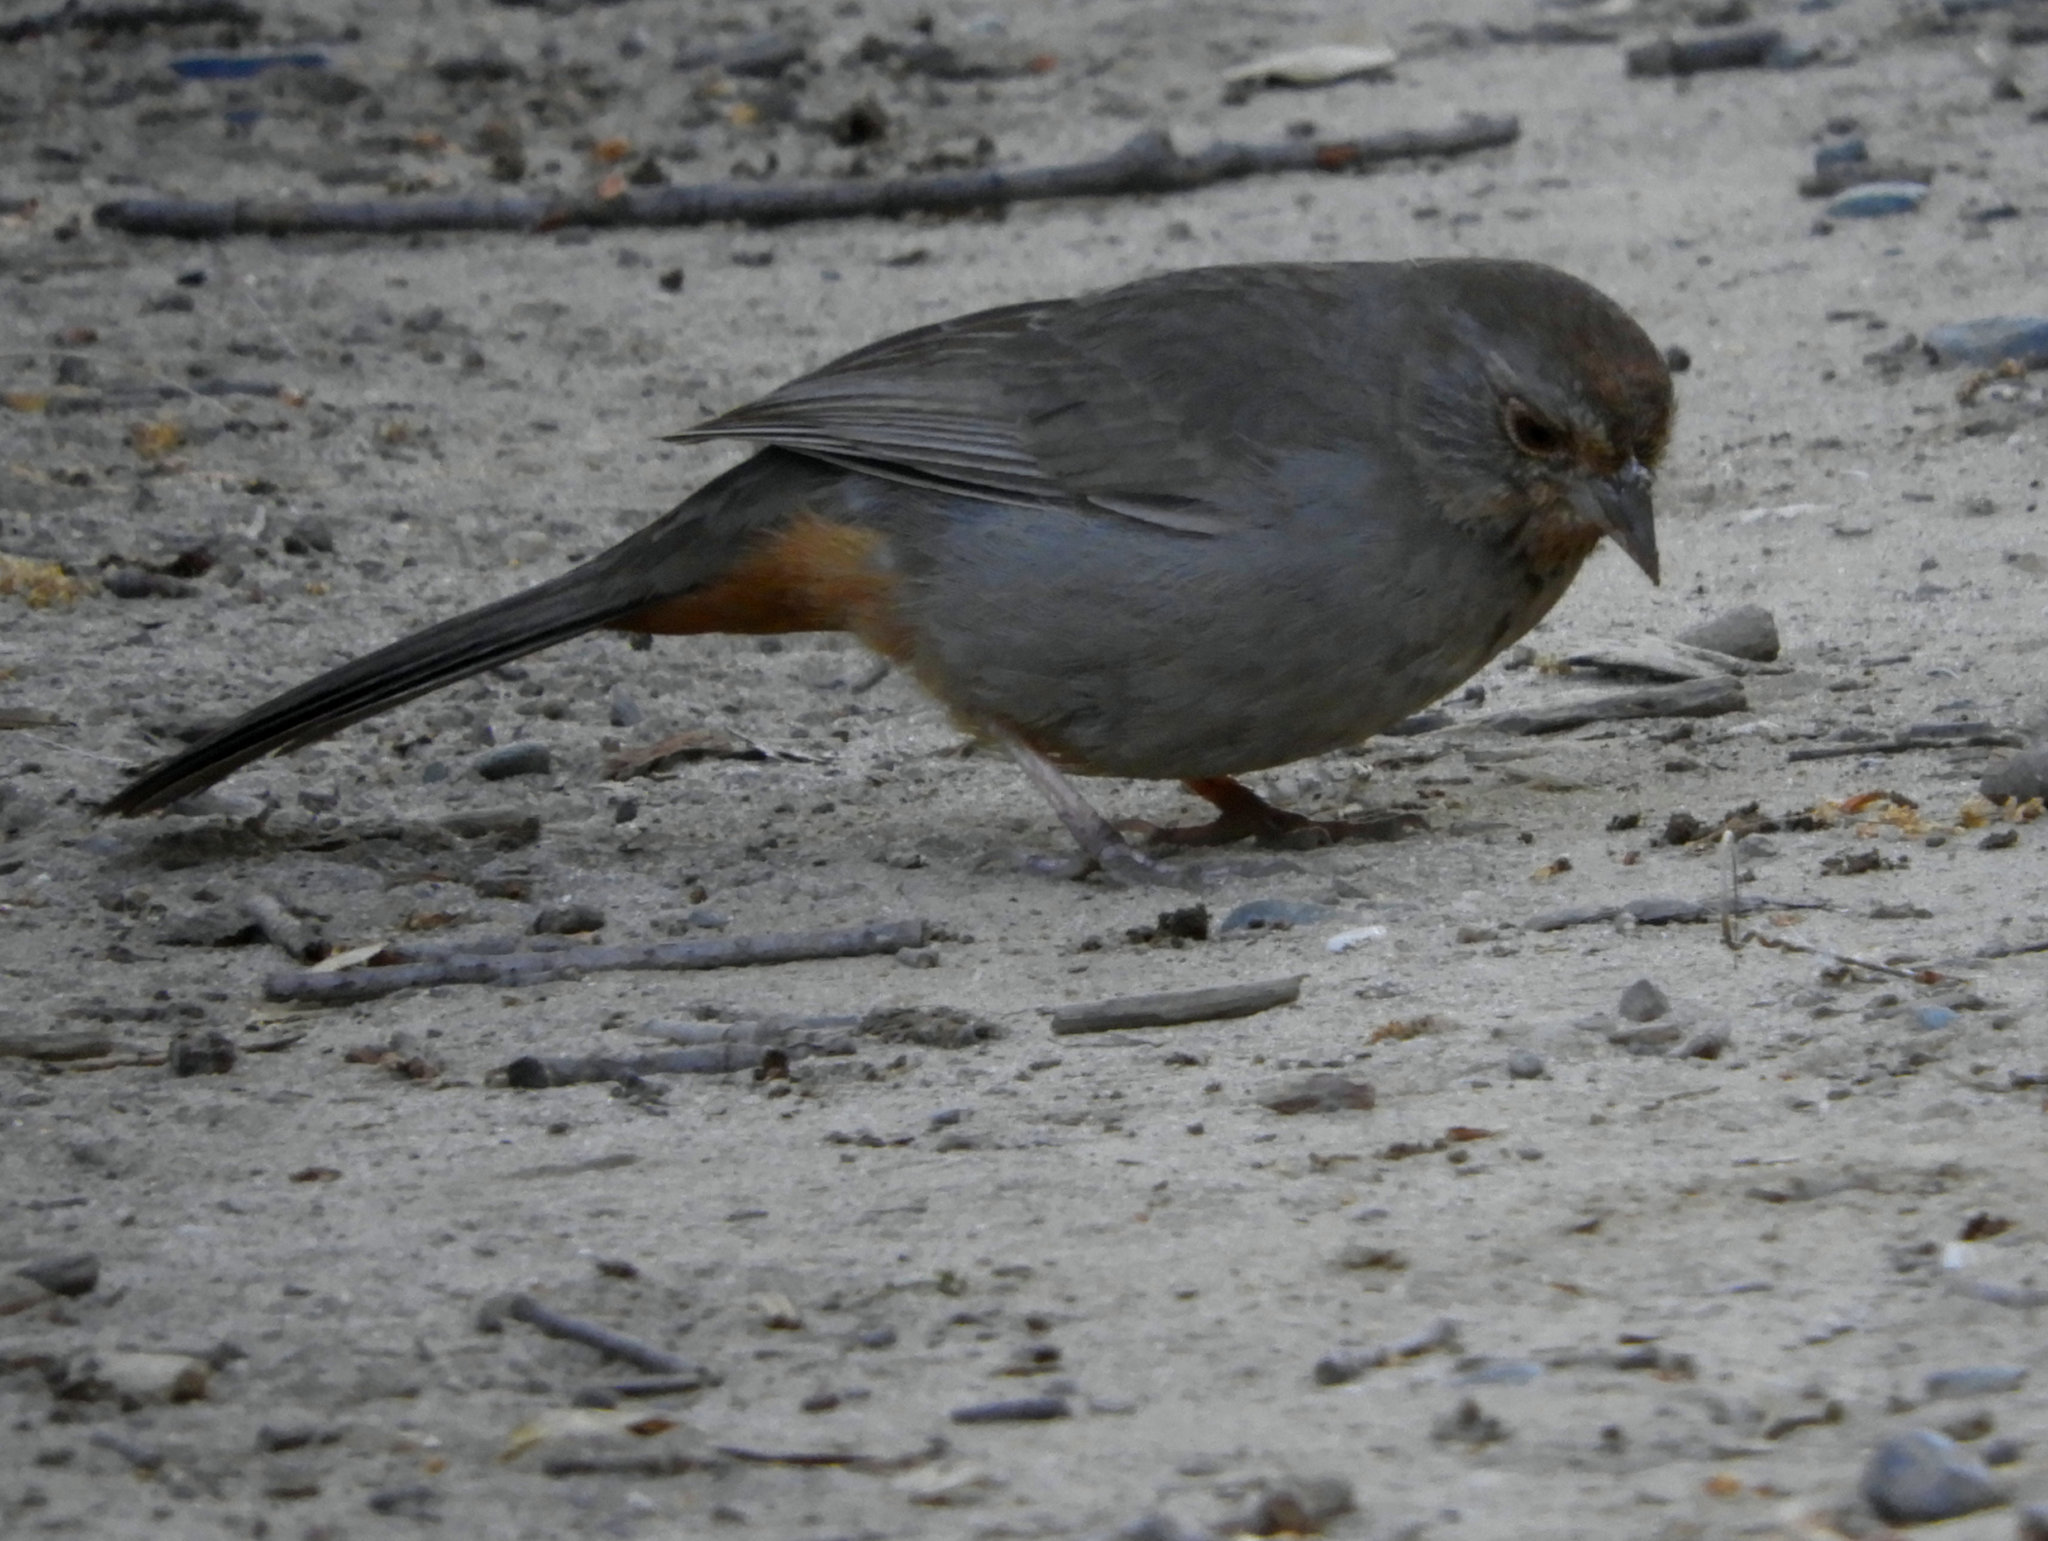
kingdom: Animalia
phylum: Chordata
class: Aves
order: Passeriformes
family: Passerellidae
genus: Melozone
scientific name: Melozone crissalis
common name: California towhee
